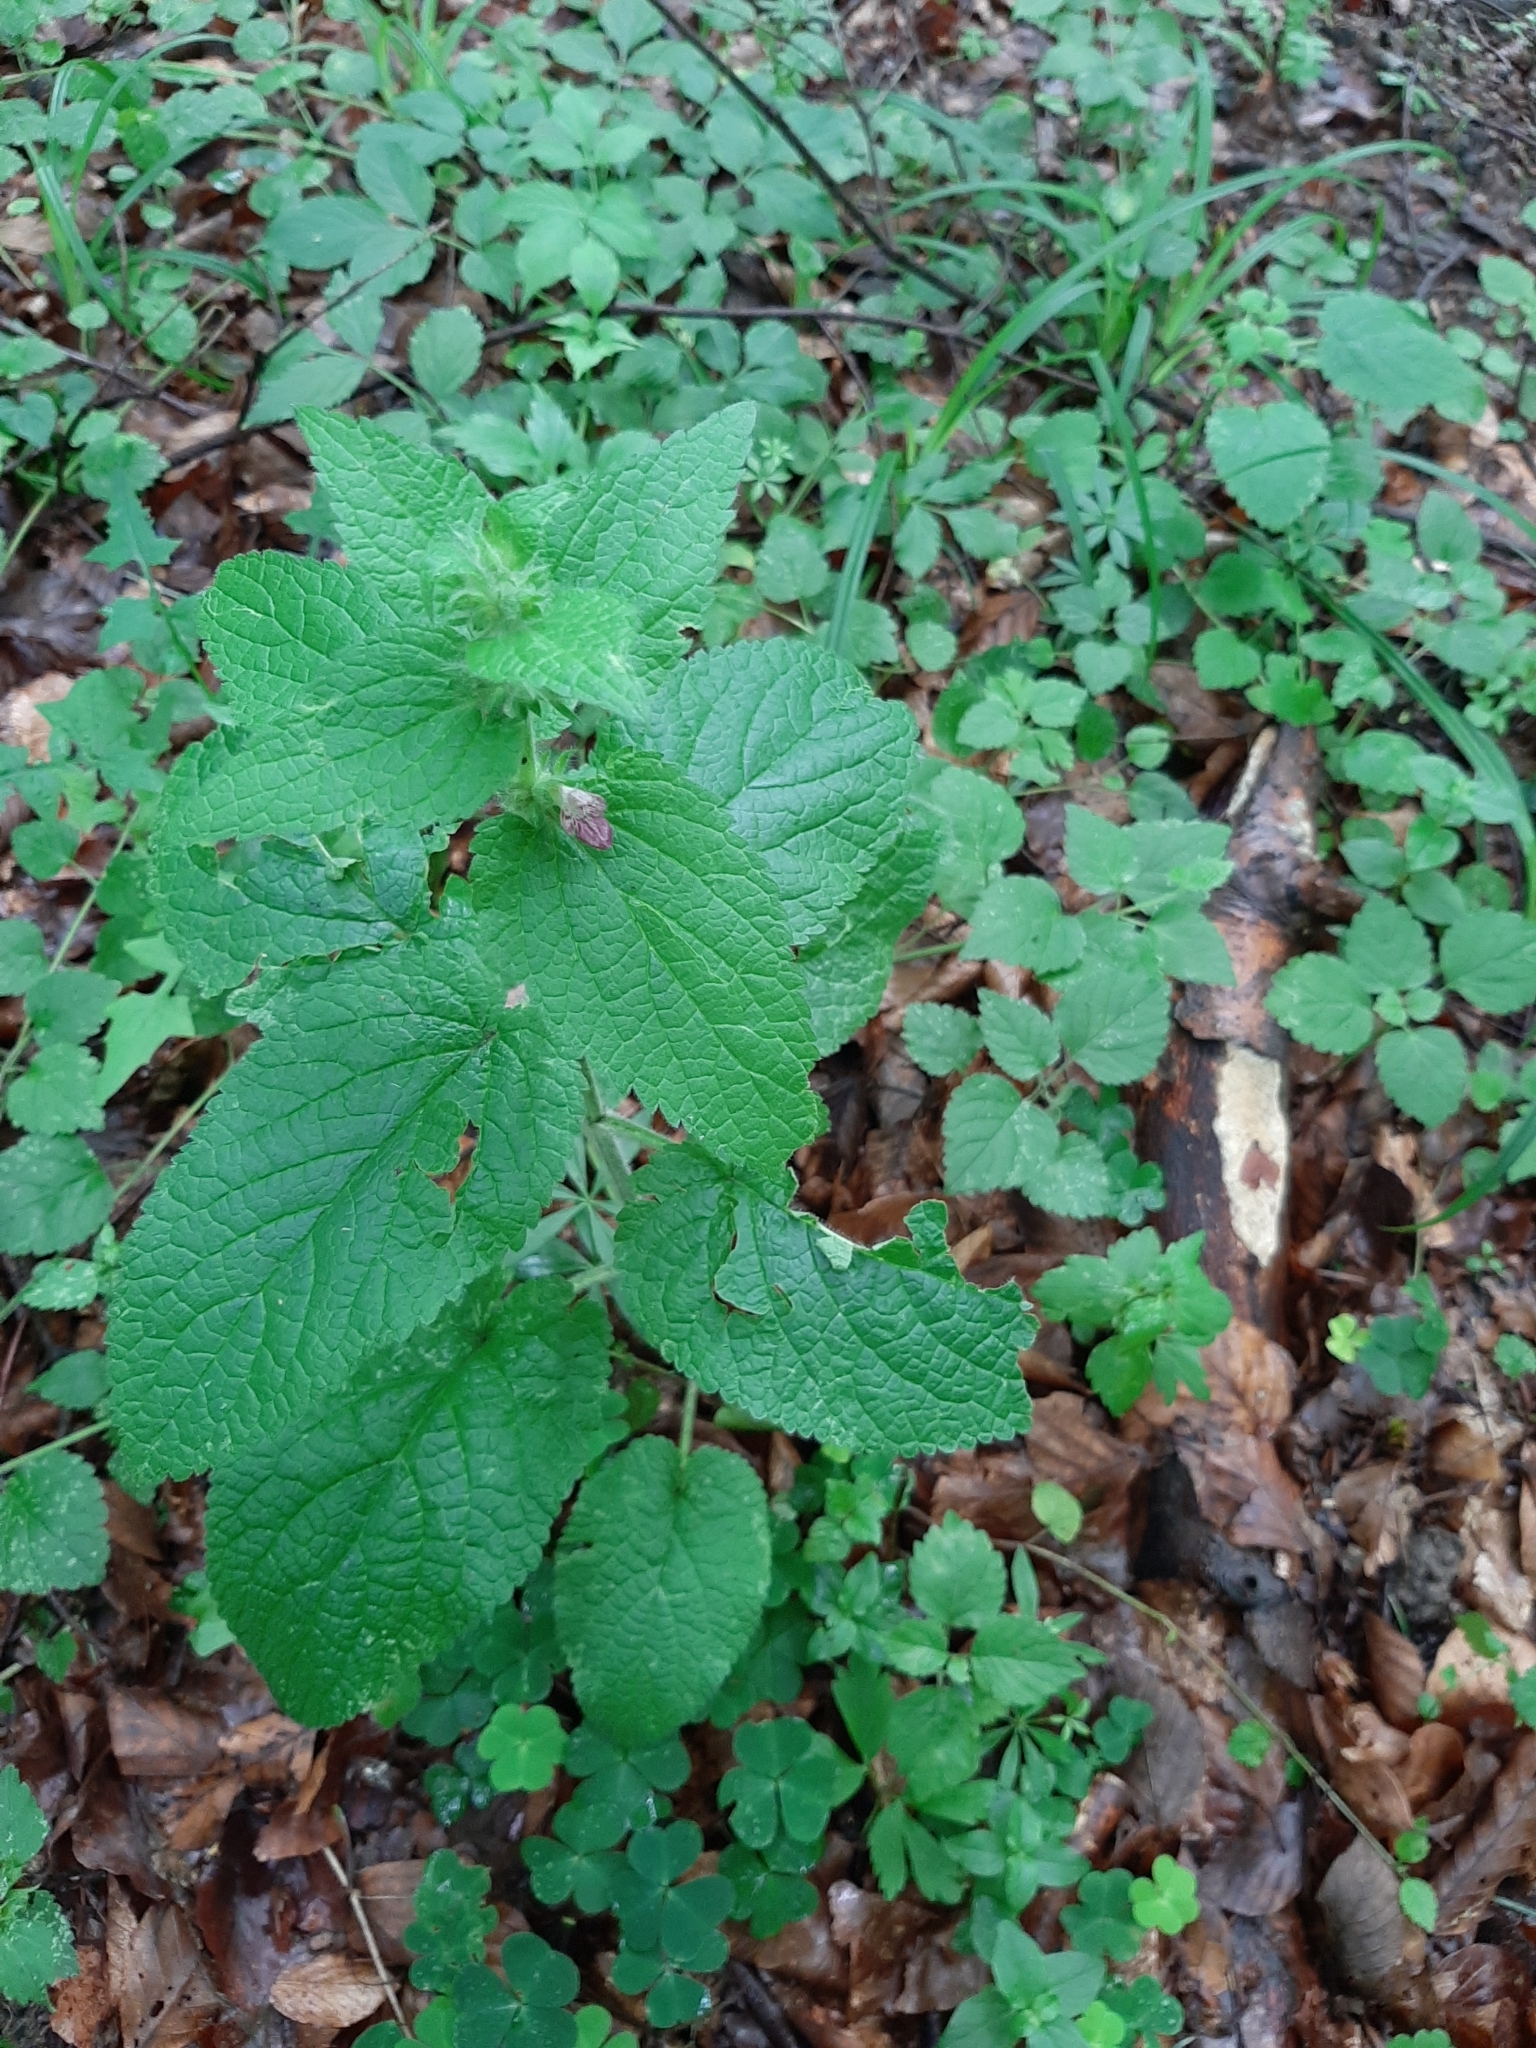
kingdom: Plantae
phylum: Tracheophyta
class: Magnoliopsida
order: Lamiales
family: Lamiaceae
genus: Stachys
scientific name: Stachys alpina
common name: Limestone woundwort
